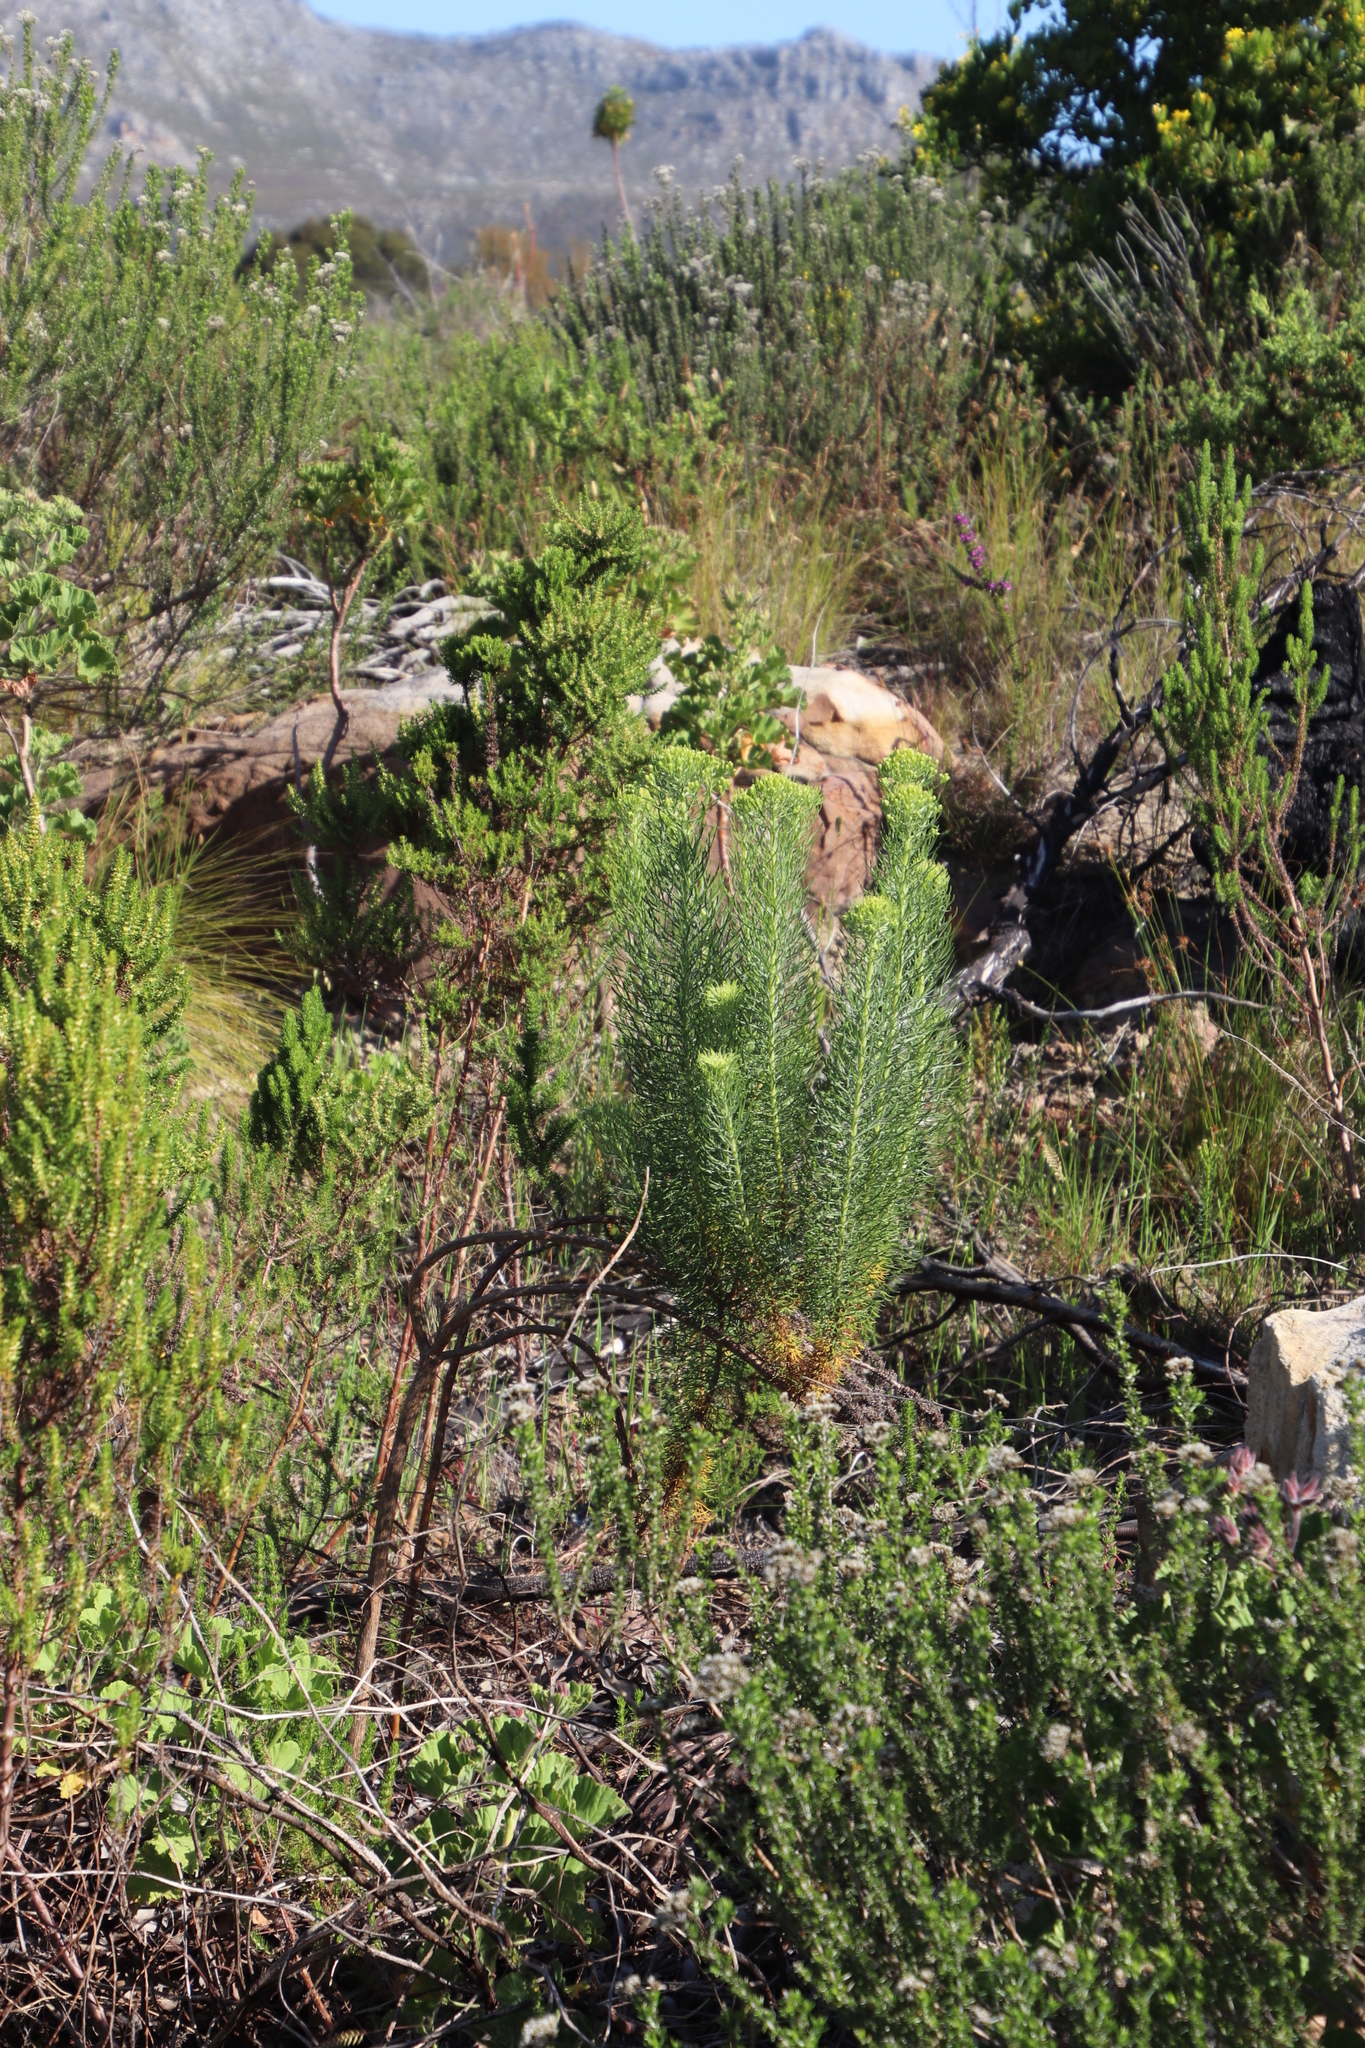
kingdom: Plantae
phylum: Tracheophyta
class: Magnoliopsida
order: Asterales
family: Asteraceae
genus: Athanasia
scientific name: Athanasia crithmifolia
